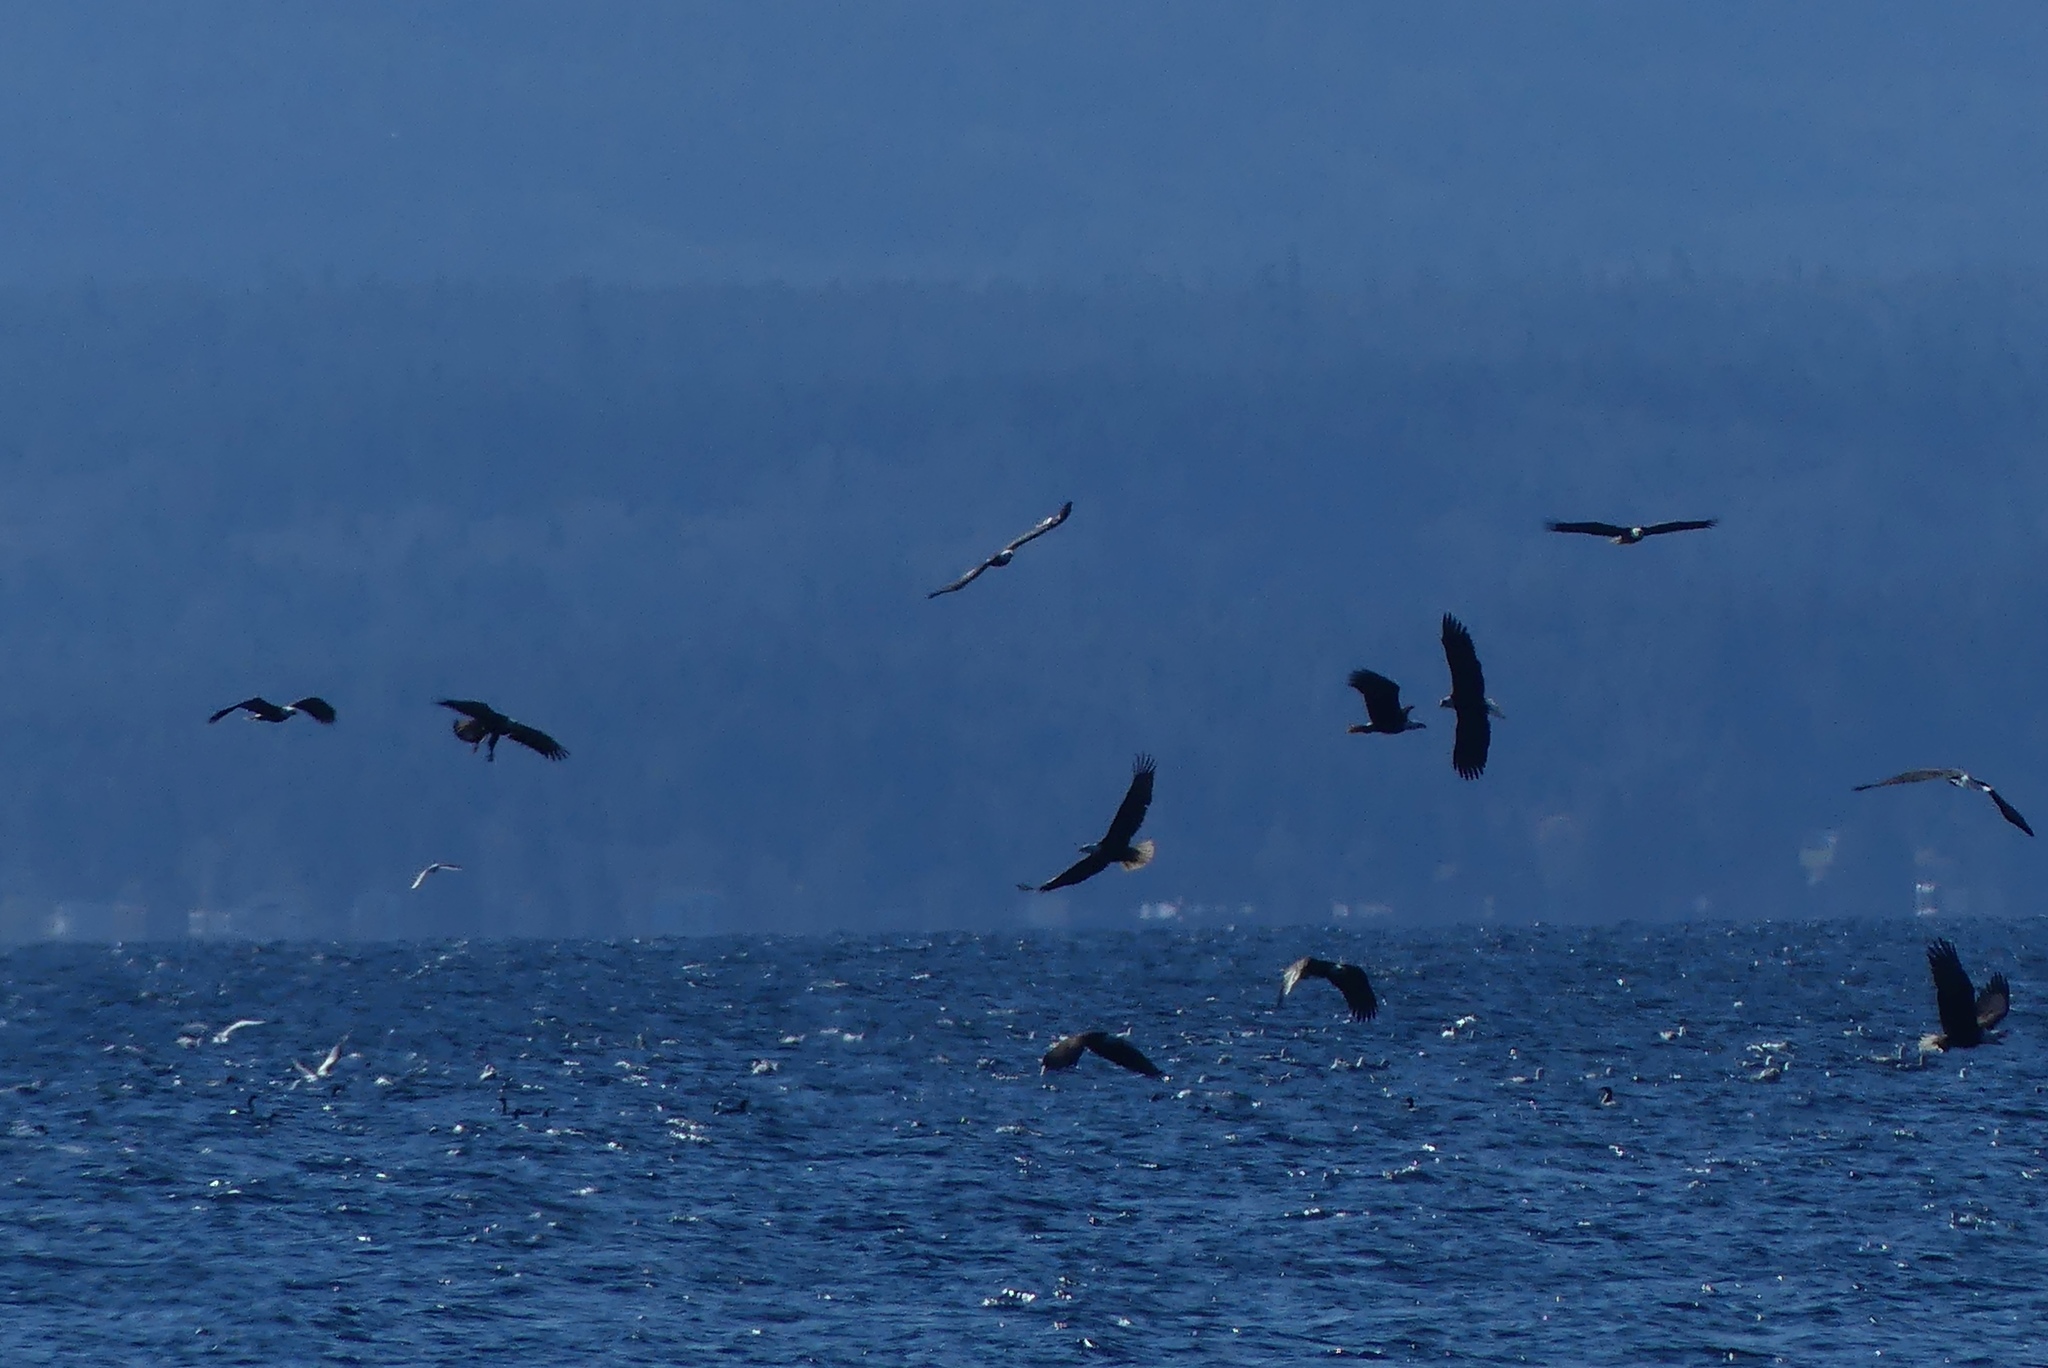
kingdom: Animalia
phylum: Chordata
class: Aves
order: Accipitriformes
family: Accipitridae
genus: Haliaeetus
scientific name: Haliaeetus leucocephalus
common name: Bald eagle
